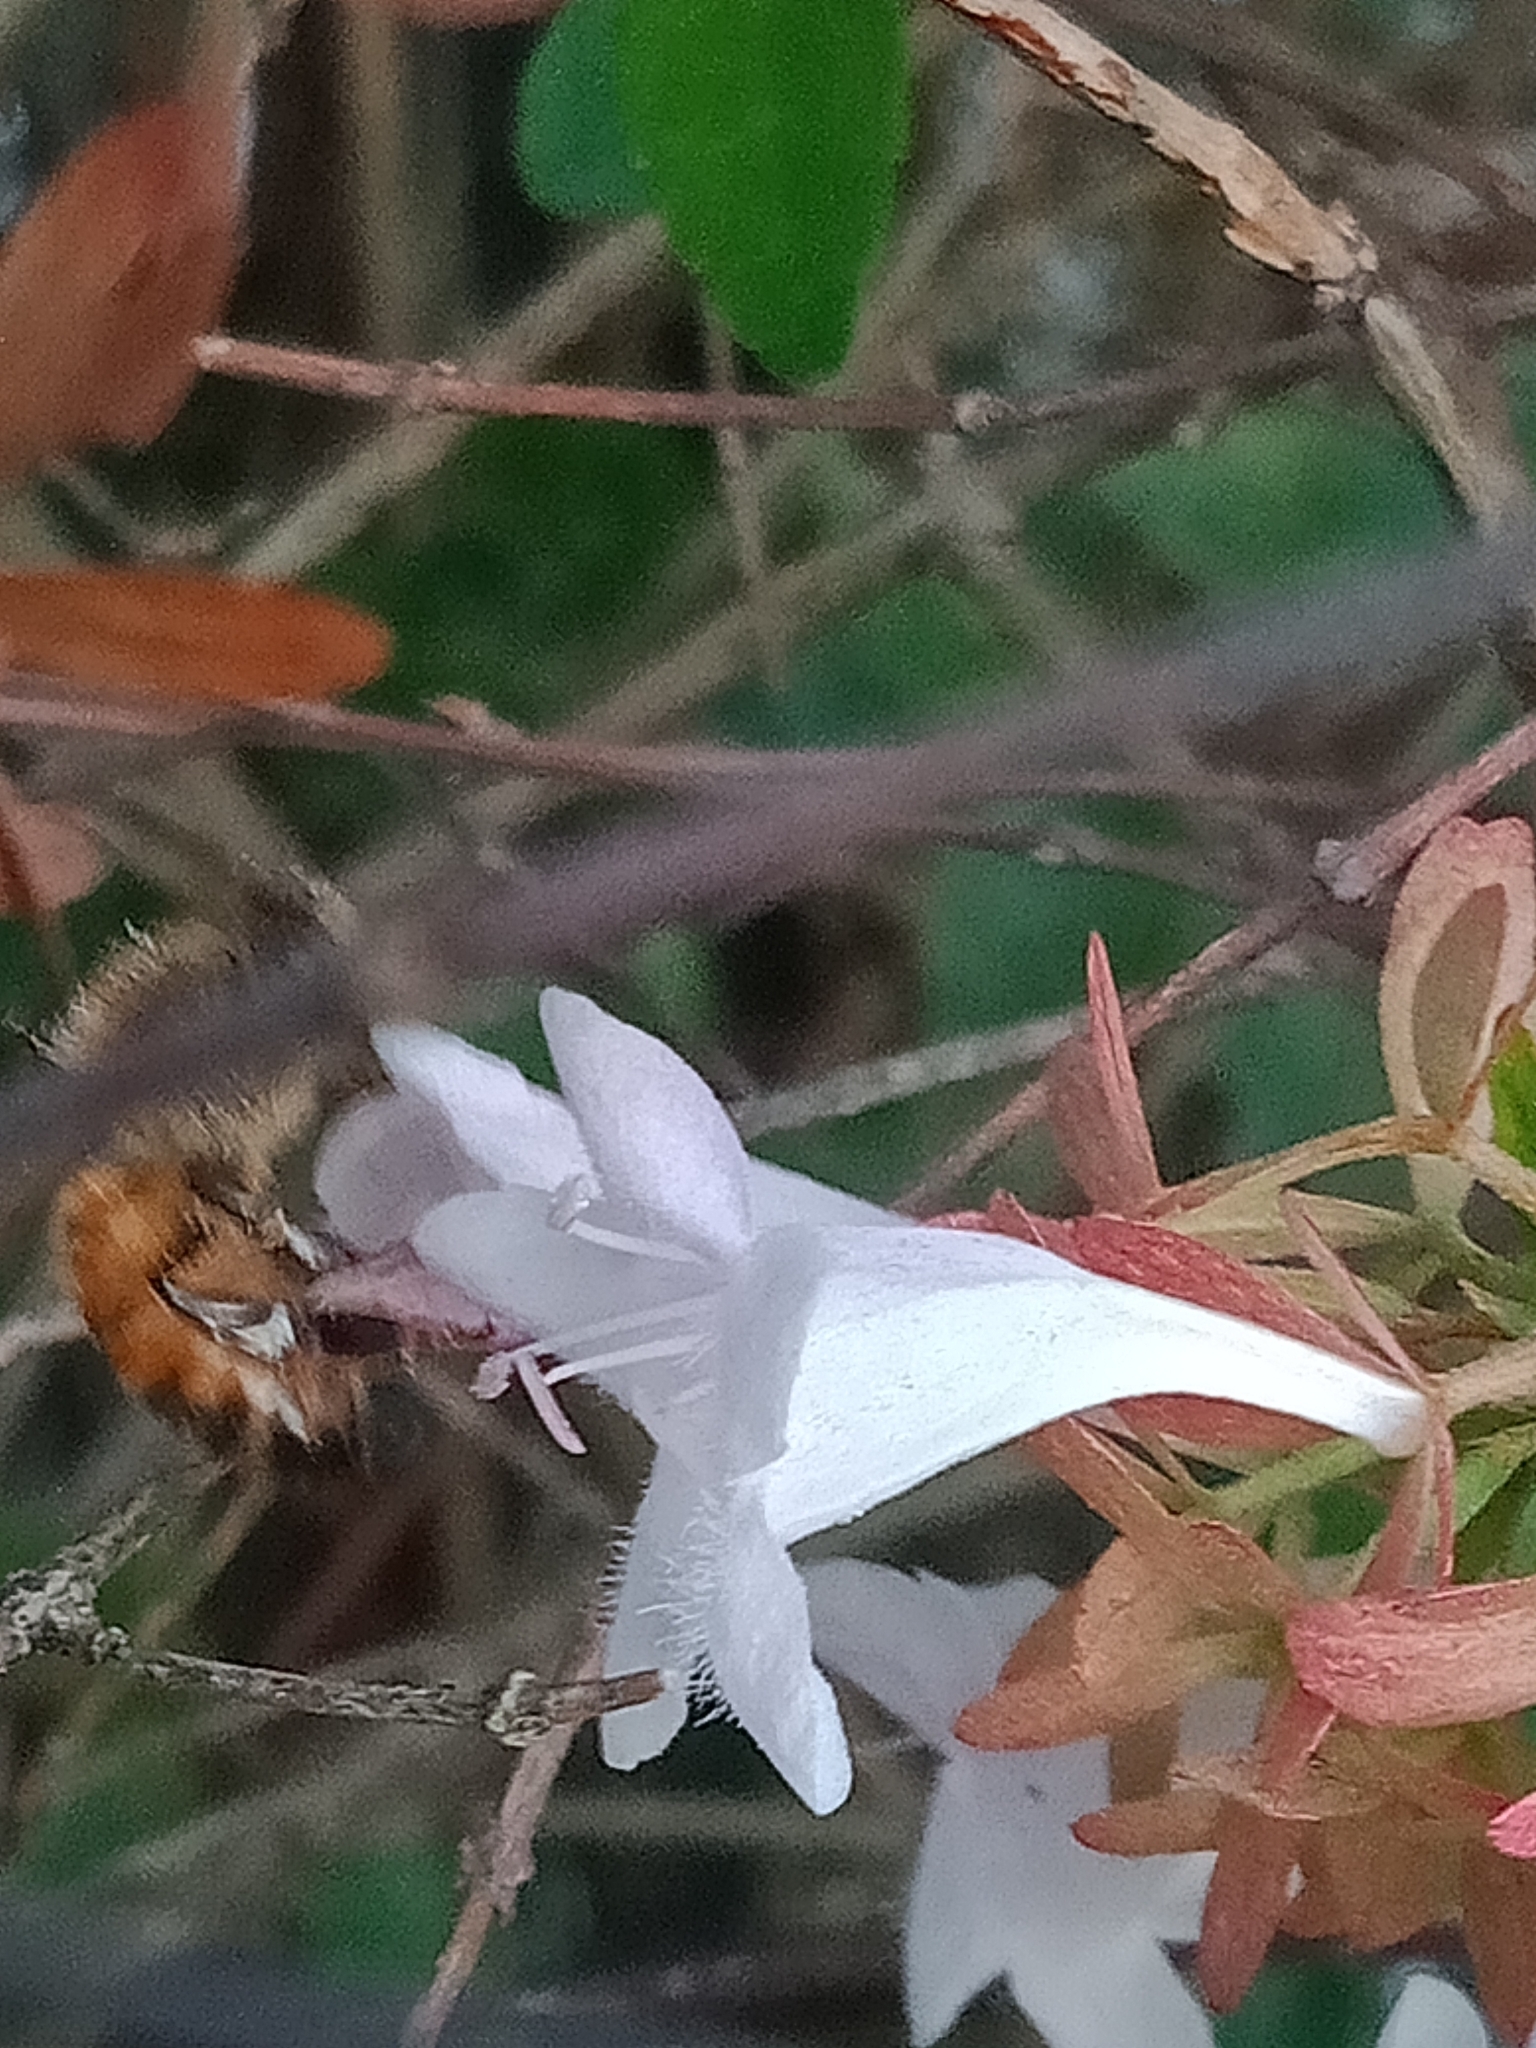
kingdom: Animalia
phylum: Arthropoda
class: Insecta
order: Hymenoptera
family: Apidae
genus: Apis
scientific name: Apis mellifera
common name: Honey bee
